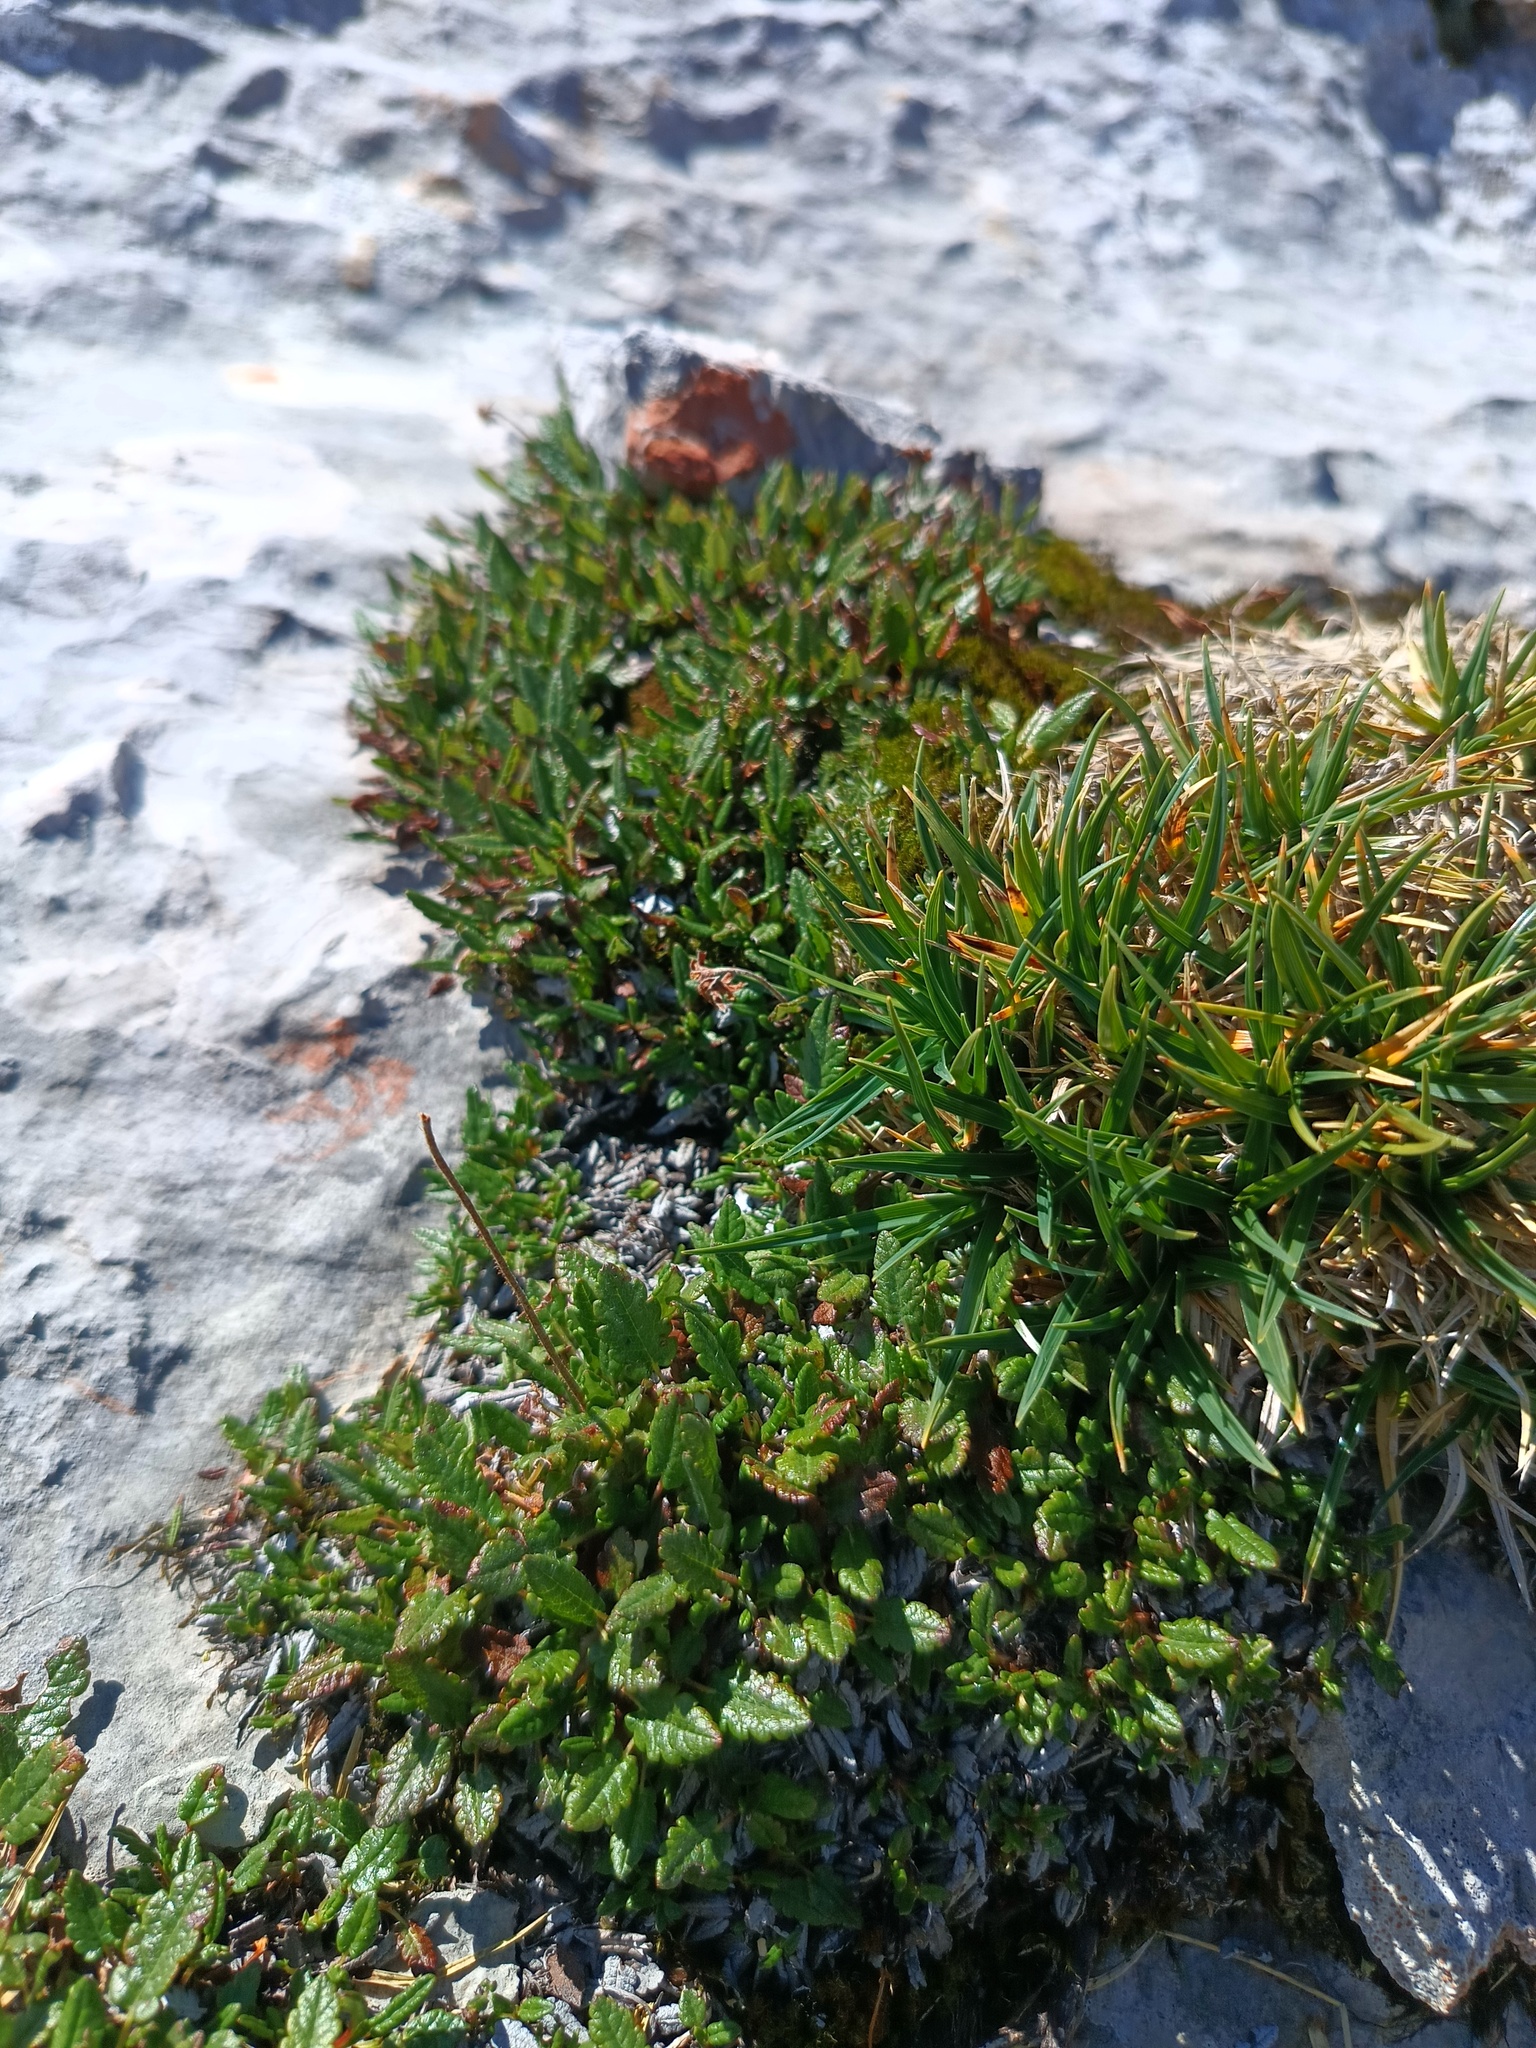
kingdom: Plantae
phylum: Tracheophyta
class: Magnoliopsida
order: Rosales
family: Rosaceae
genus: Dryas
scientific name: Dryas octopetala
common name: Eight-petal mountain-avens
